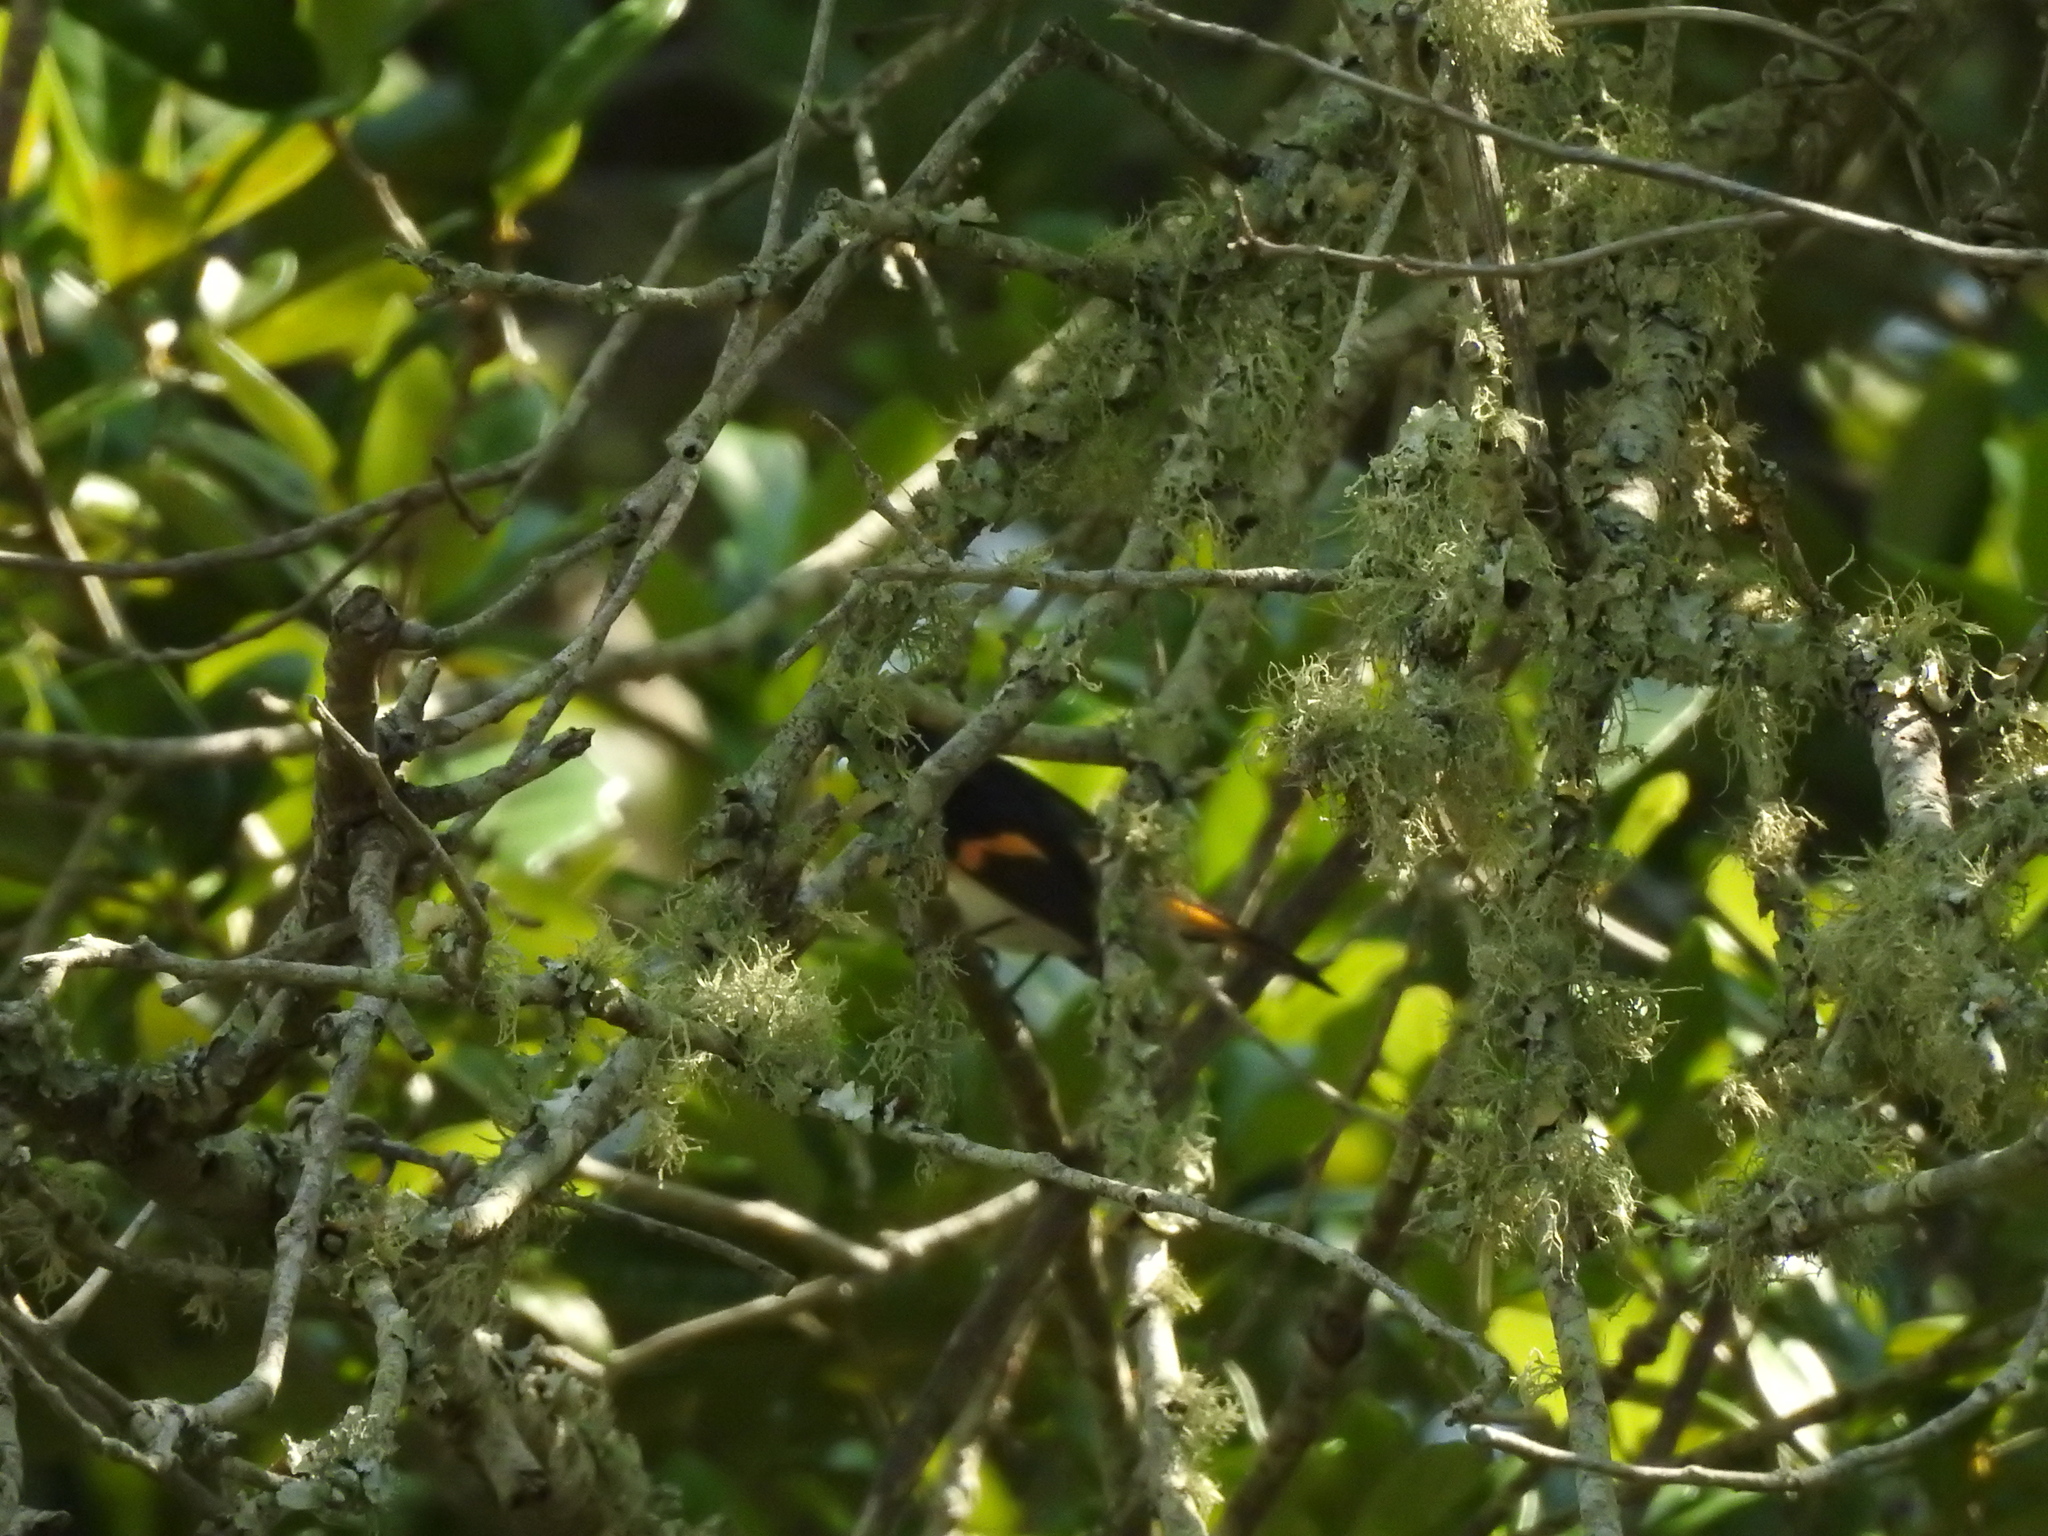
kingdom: Animalia
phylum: Chordata
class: Aves
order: Passeriformes
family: Parulidae
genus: Setophaga
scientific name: Setophaga ruticilla
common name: American redstart
